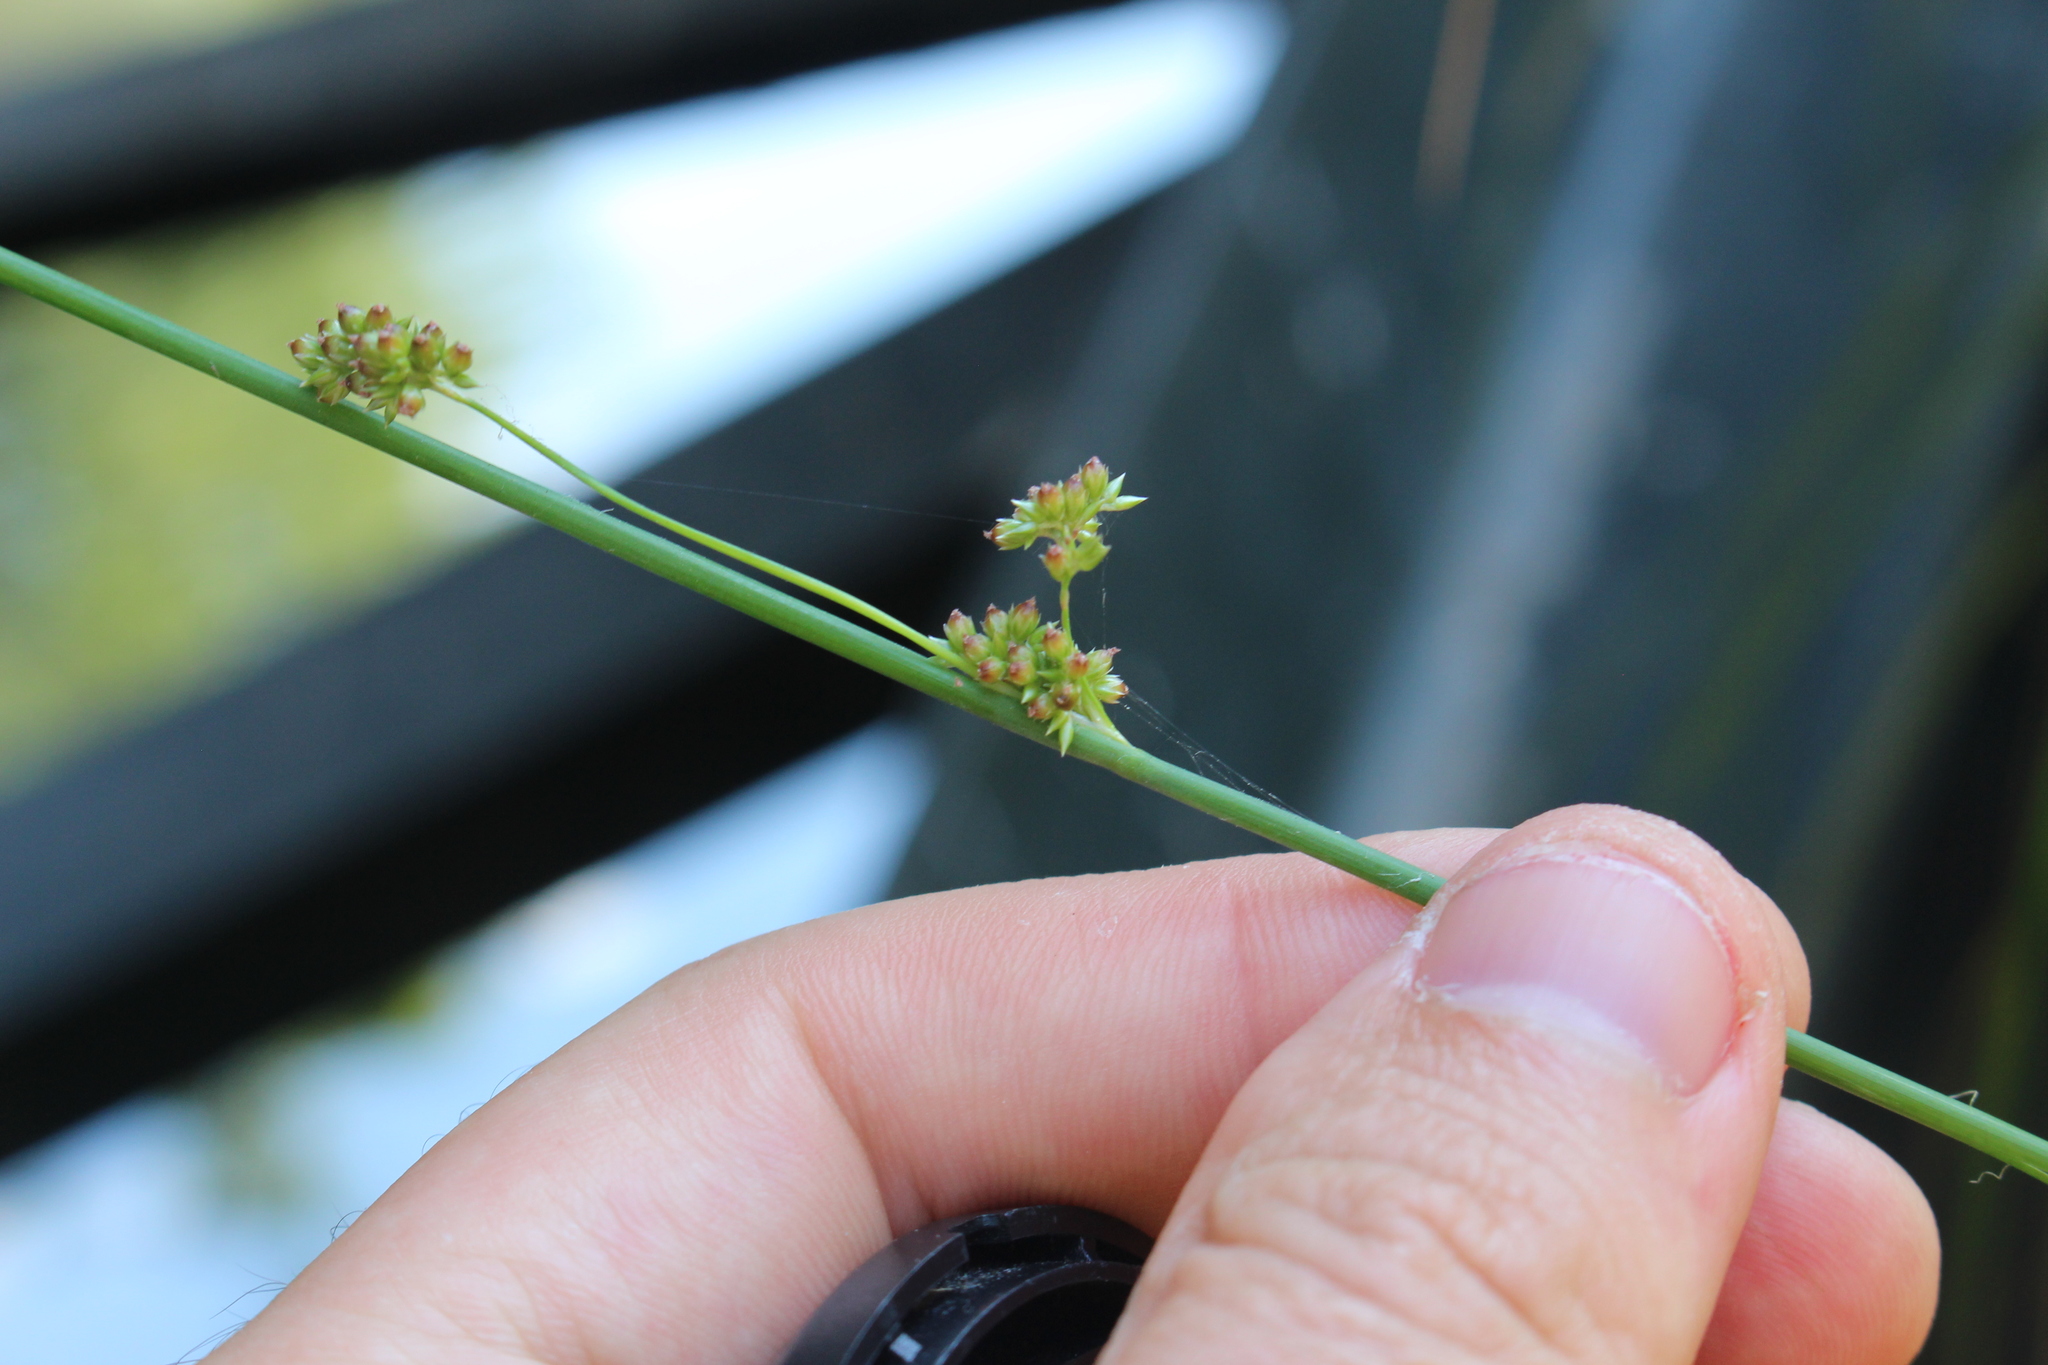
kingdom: Plantae
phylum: Tracheophyta
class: Liliopsida
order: Poales
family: Juncaceae
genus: Juncus
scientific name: Juncus australis
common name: Austral rush
